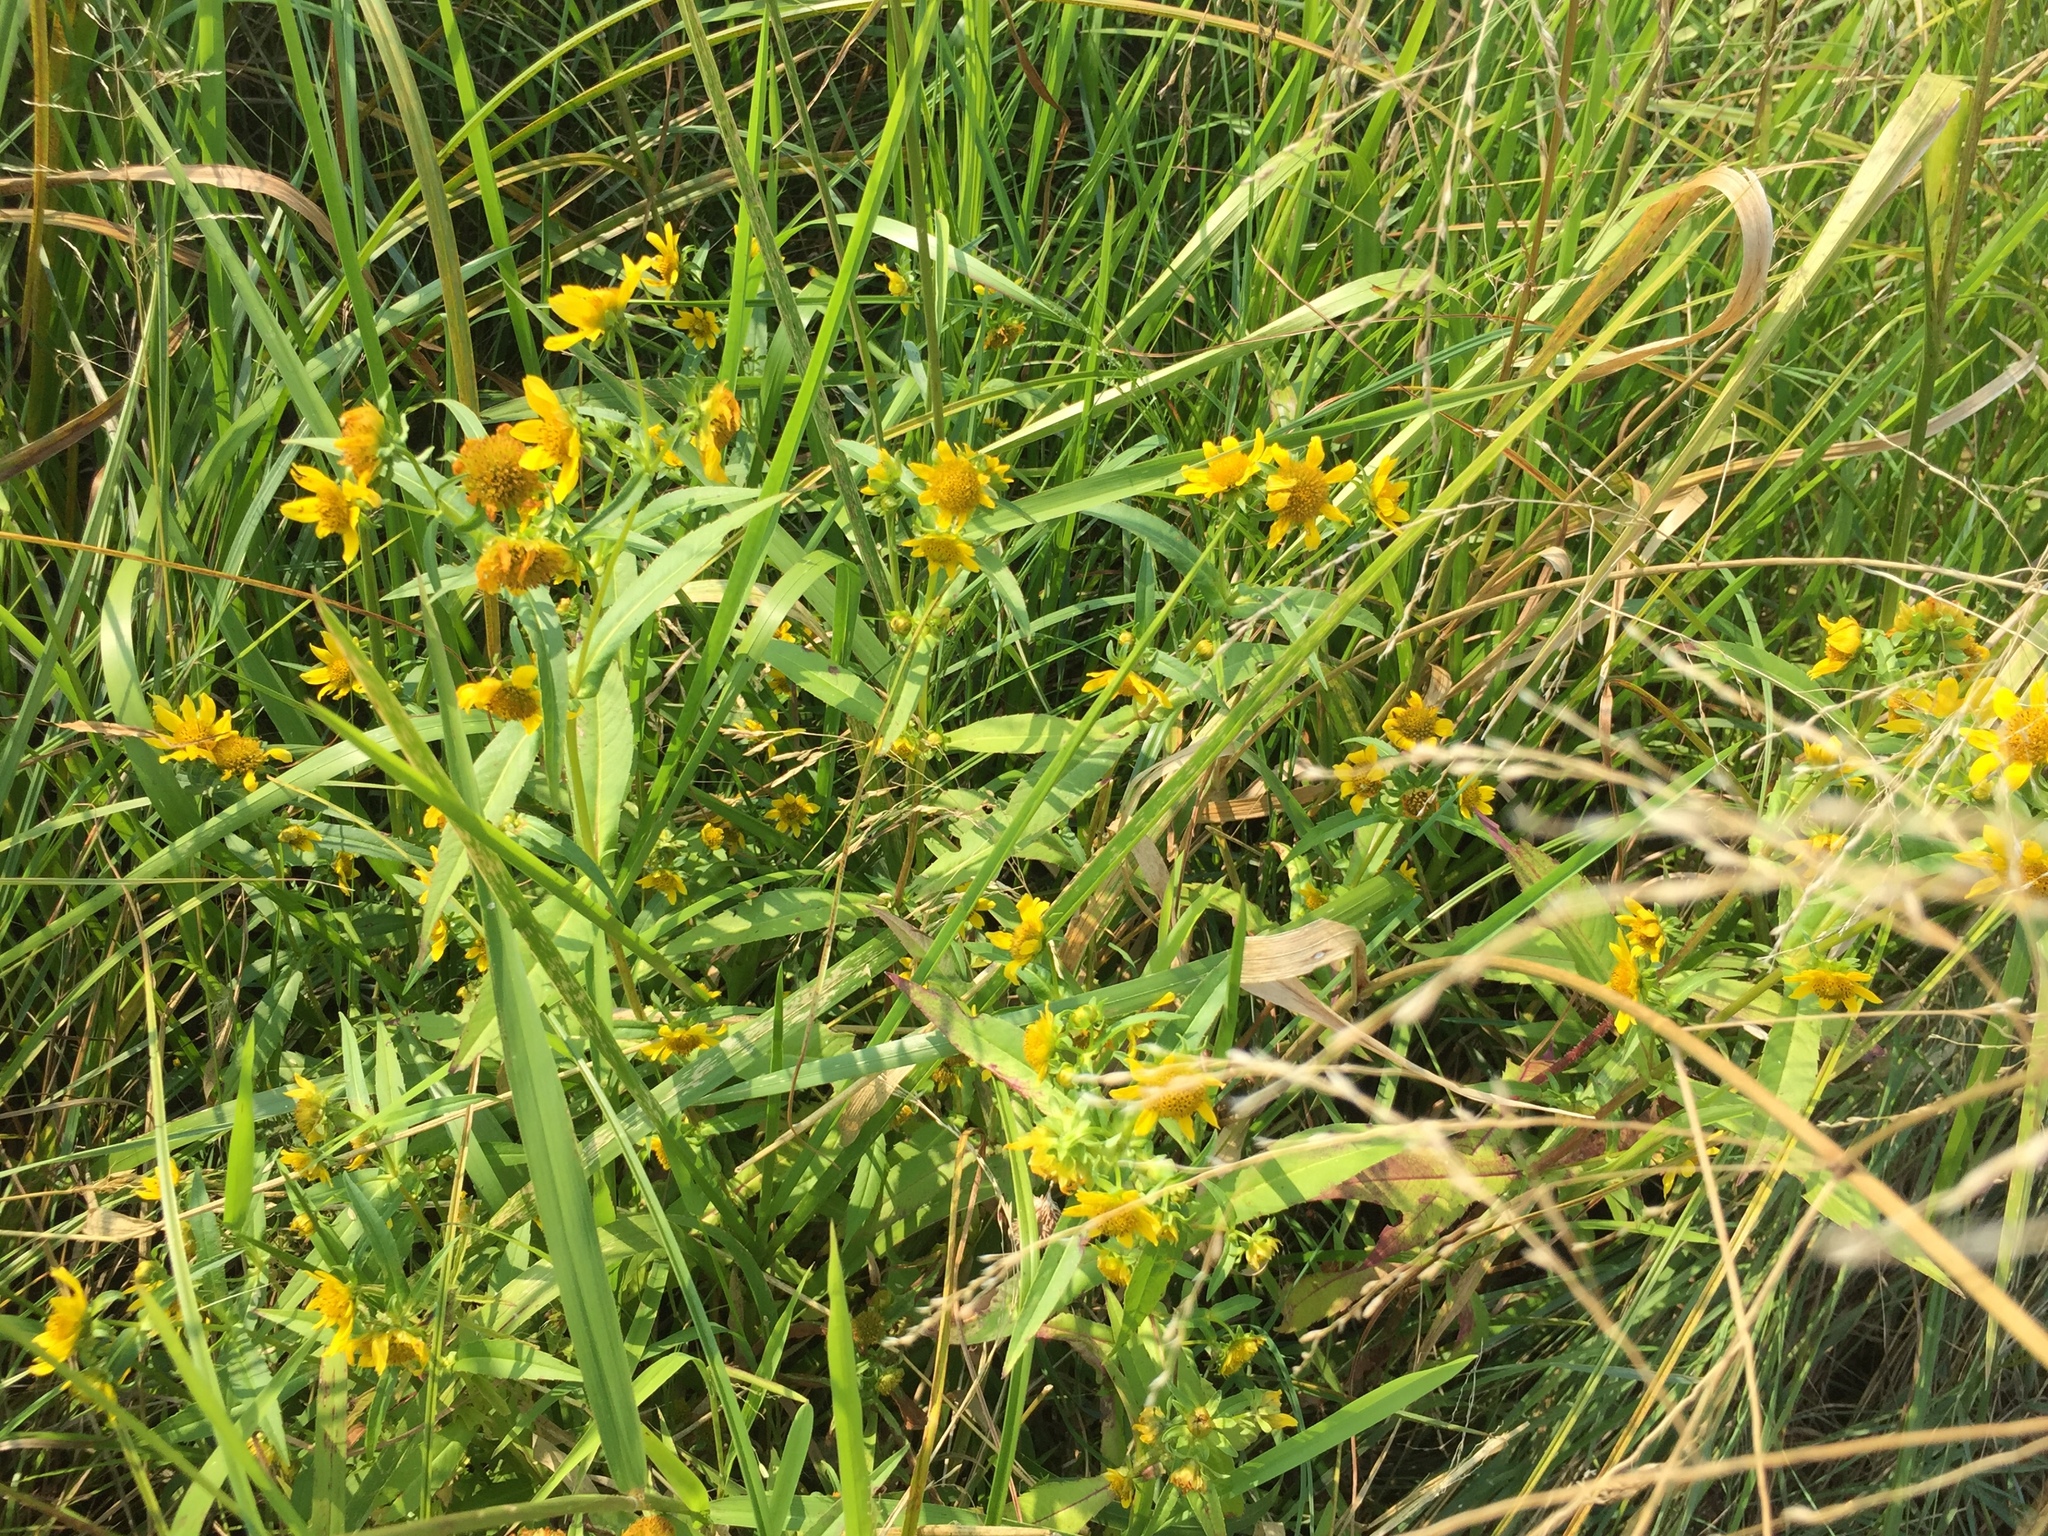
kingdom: Plantae
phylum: Tracheophyta
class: Magnoliopsida
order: Asterales
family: Asteraceae
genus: Bidens
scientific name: Bidens cernua
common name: Nodding bur-marigold
